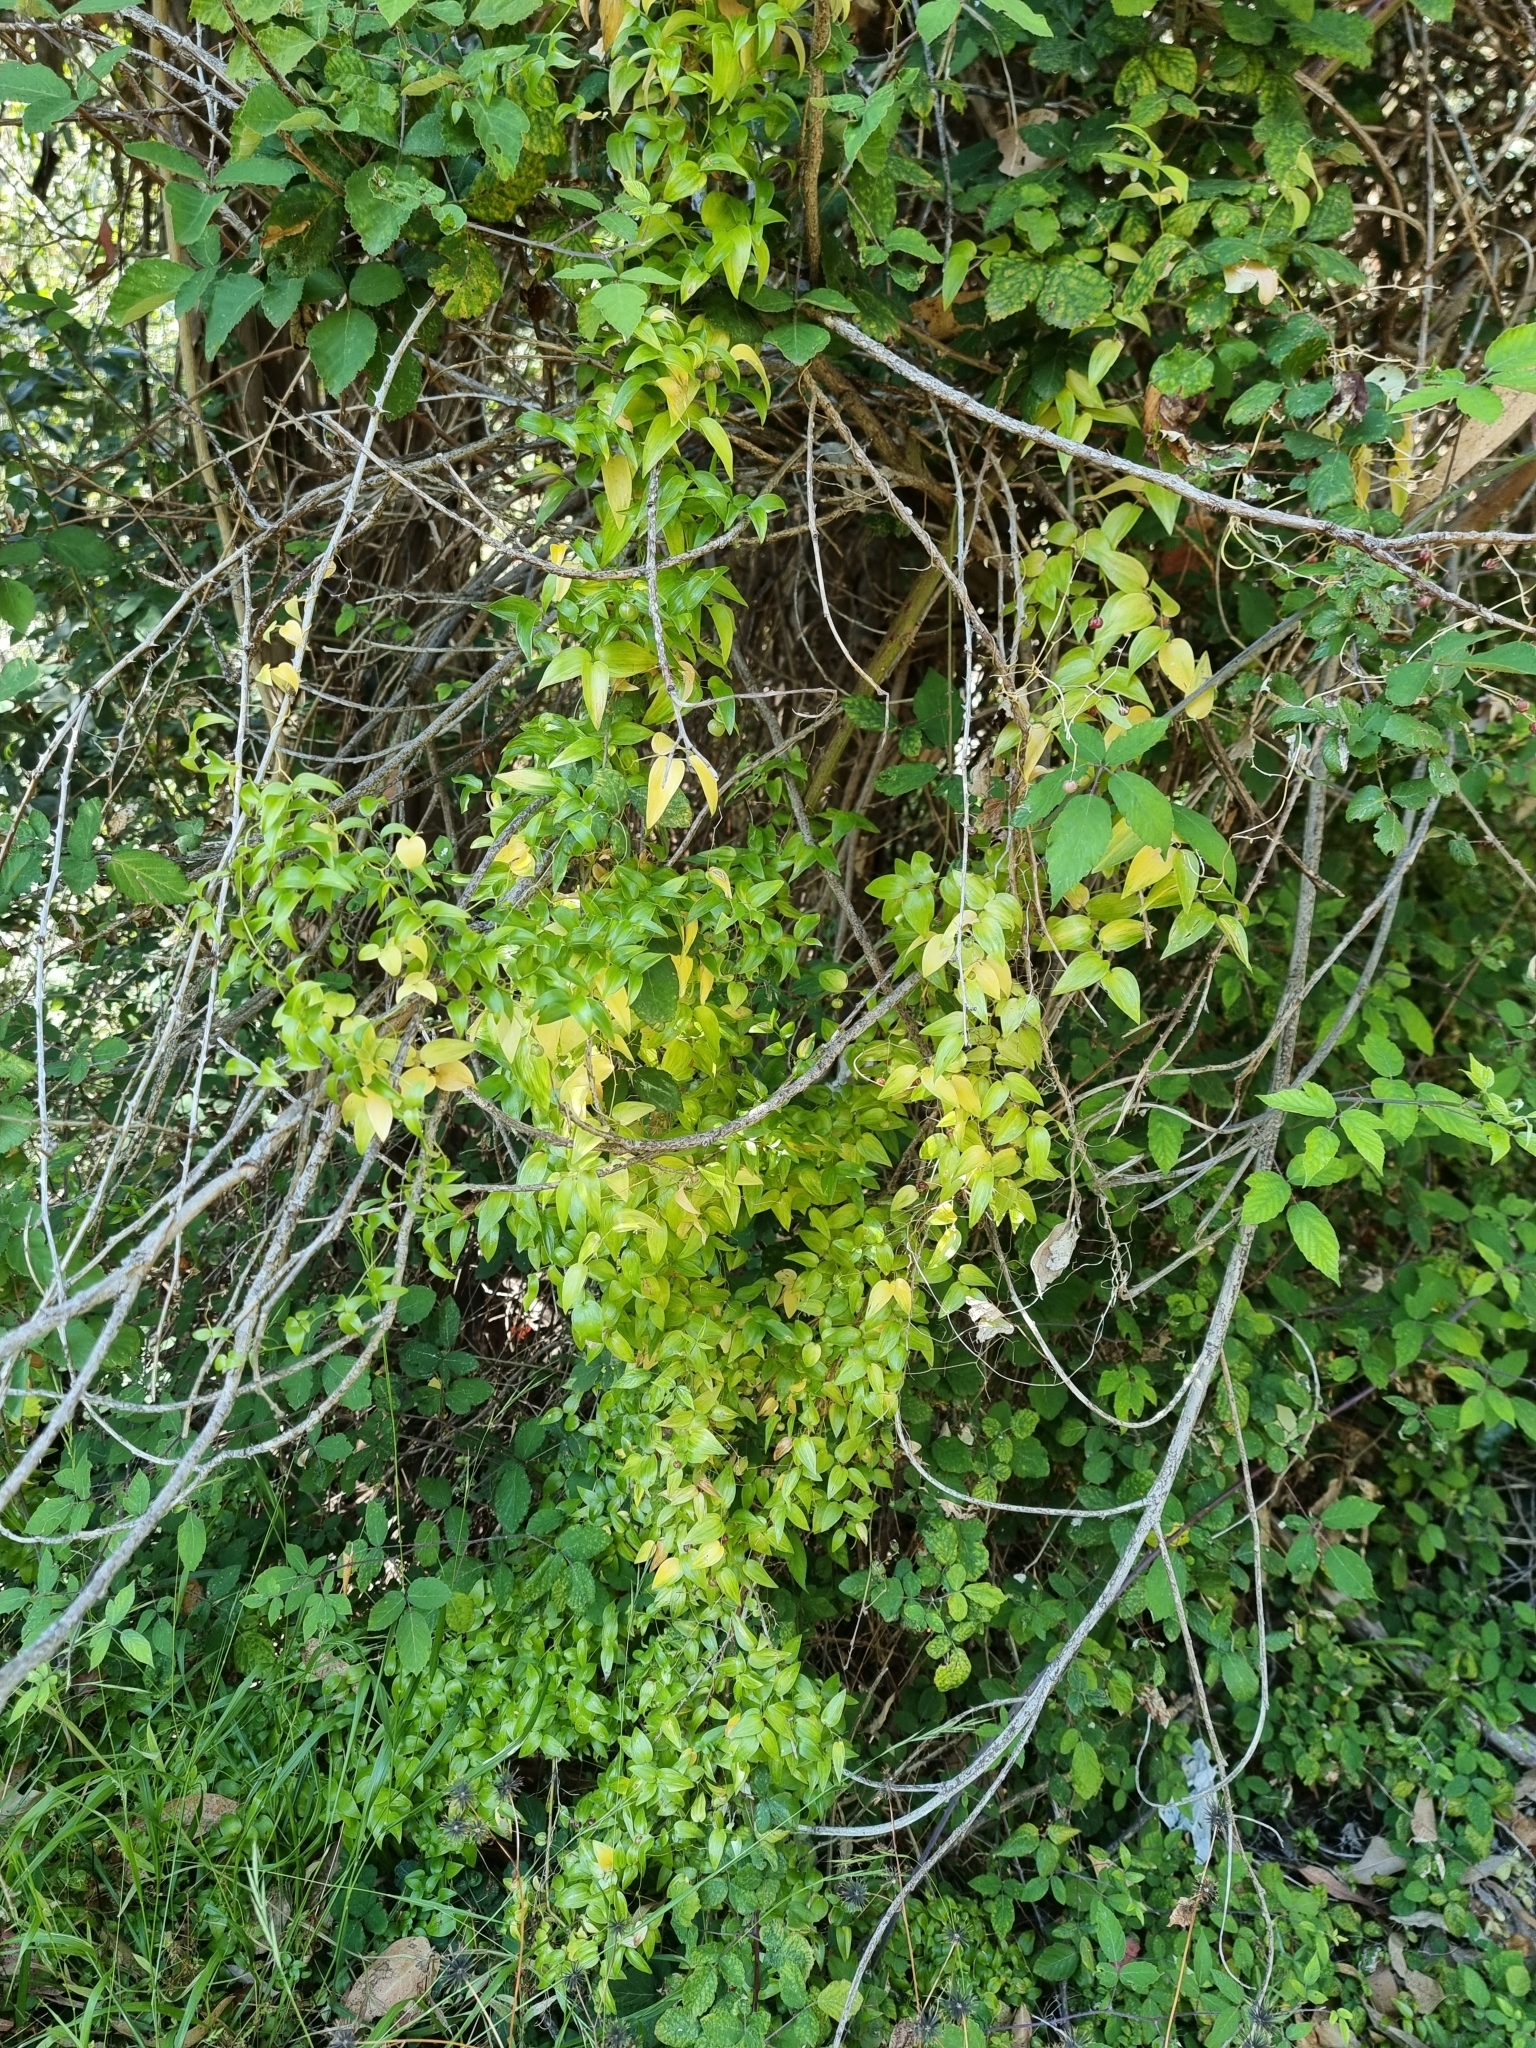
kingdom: Plantae
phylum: Tracheophyta
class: Liliopsida
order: Asparagales
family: Asparagaceae
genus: Asparagus
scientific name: Asparagus asparagoides
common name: African asparagus fern
